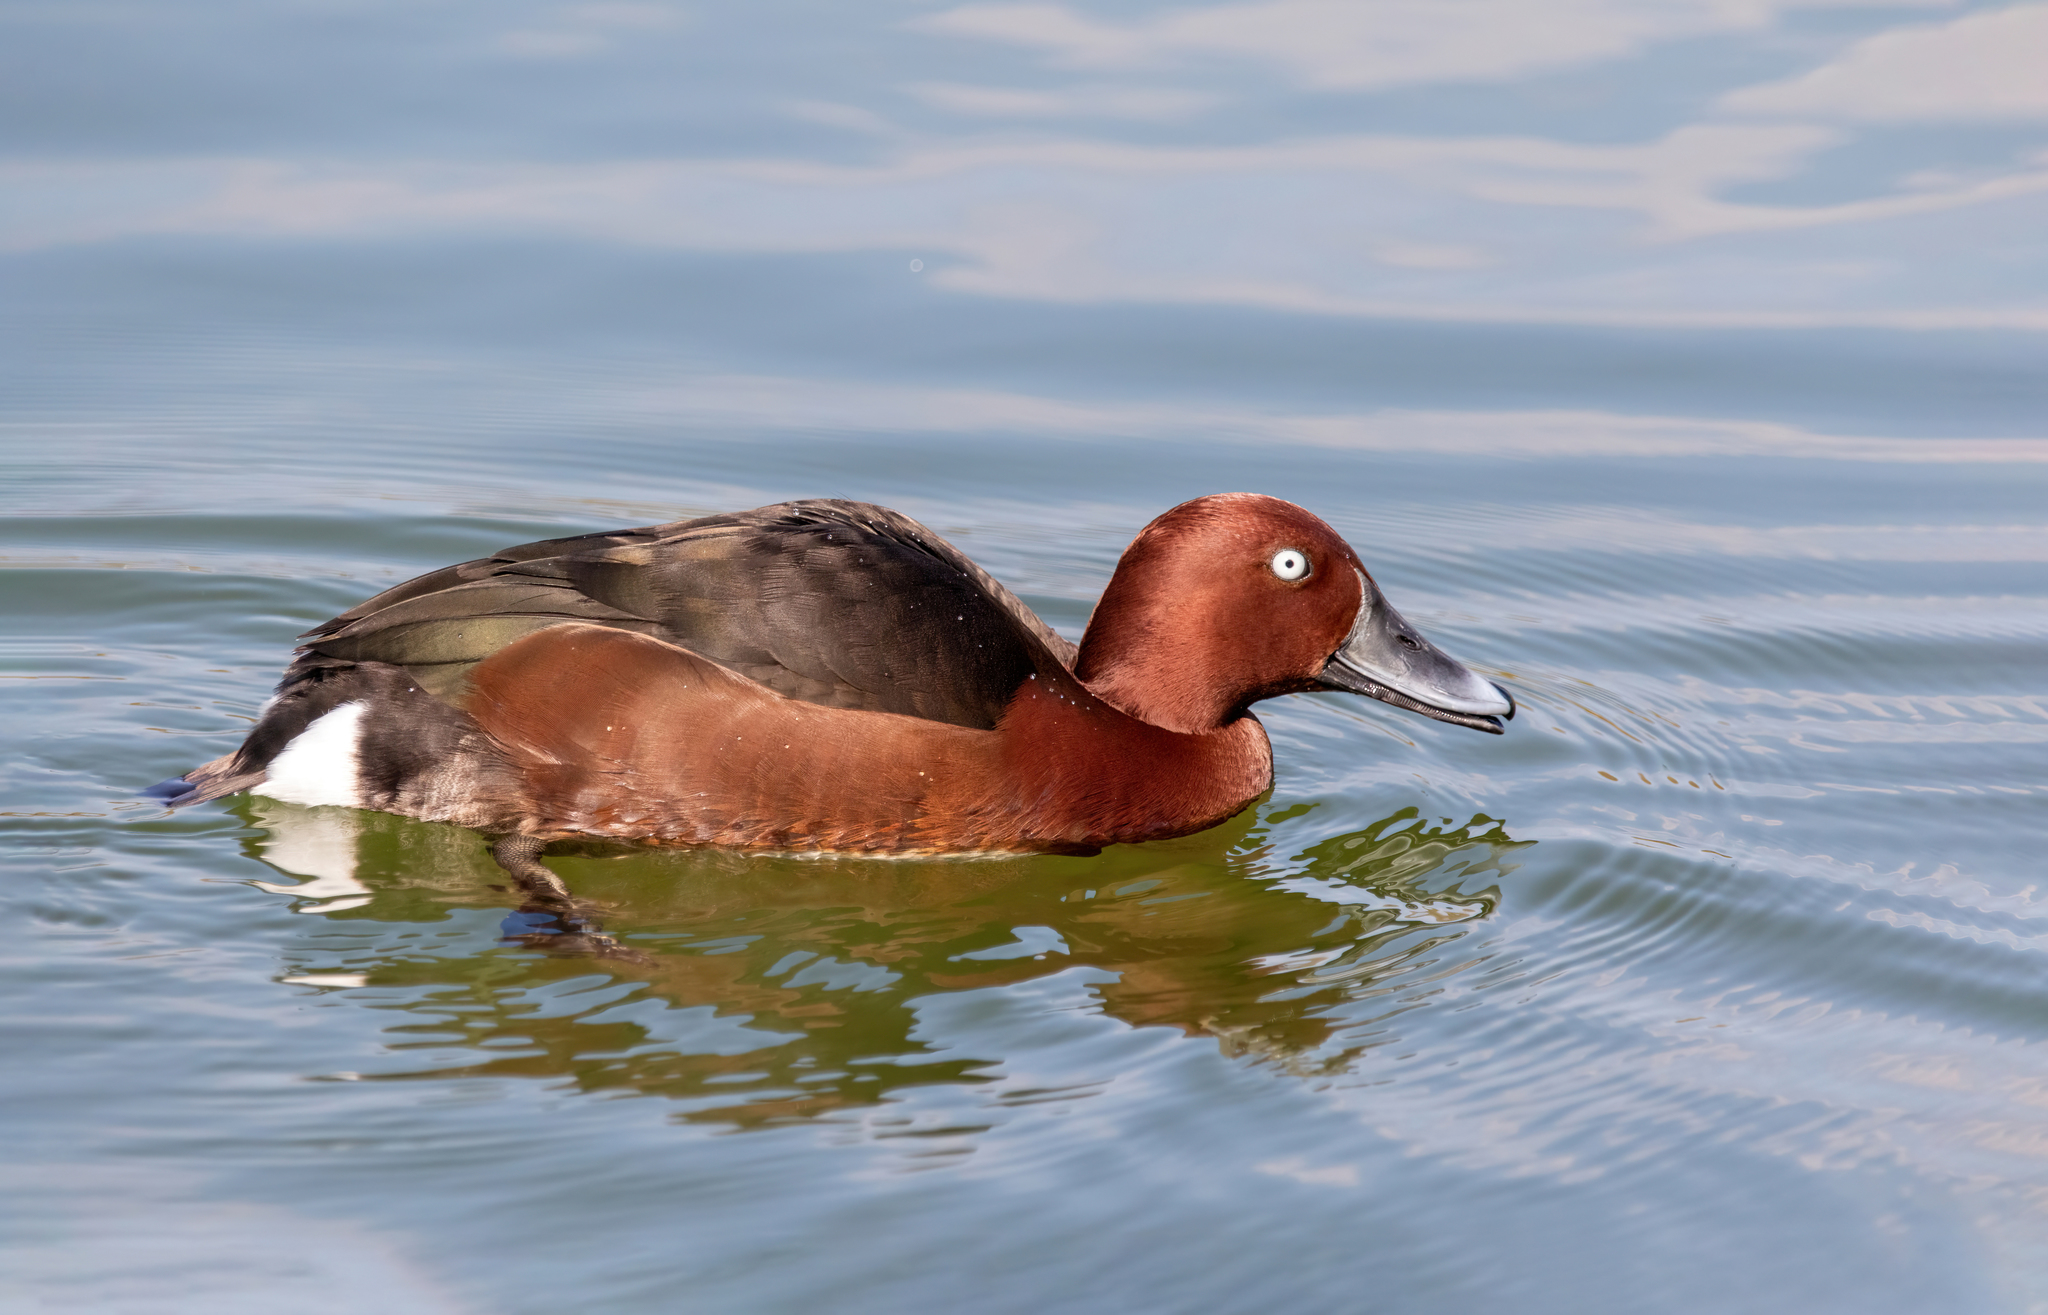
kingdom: Animalia
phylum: Chordata
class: Aves
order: Anseriformes
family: Anatidae
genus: Aythya
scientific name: Aythya nyroca
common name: Ferruginous duck
